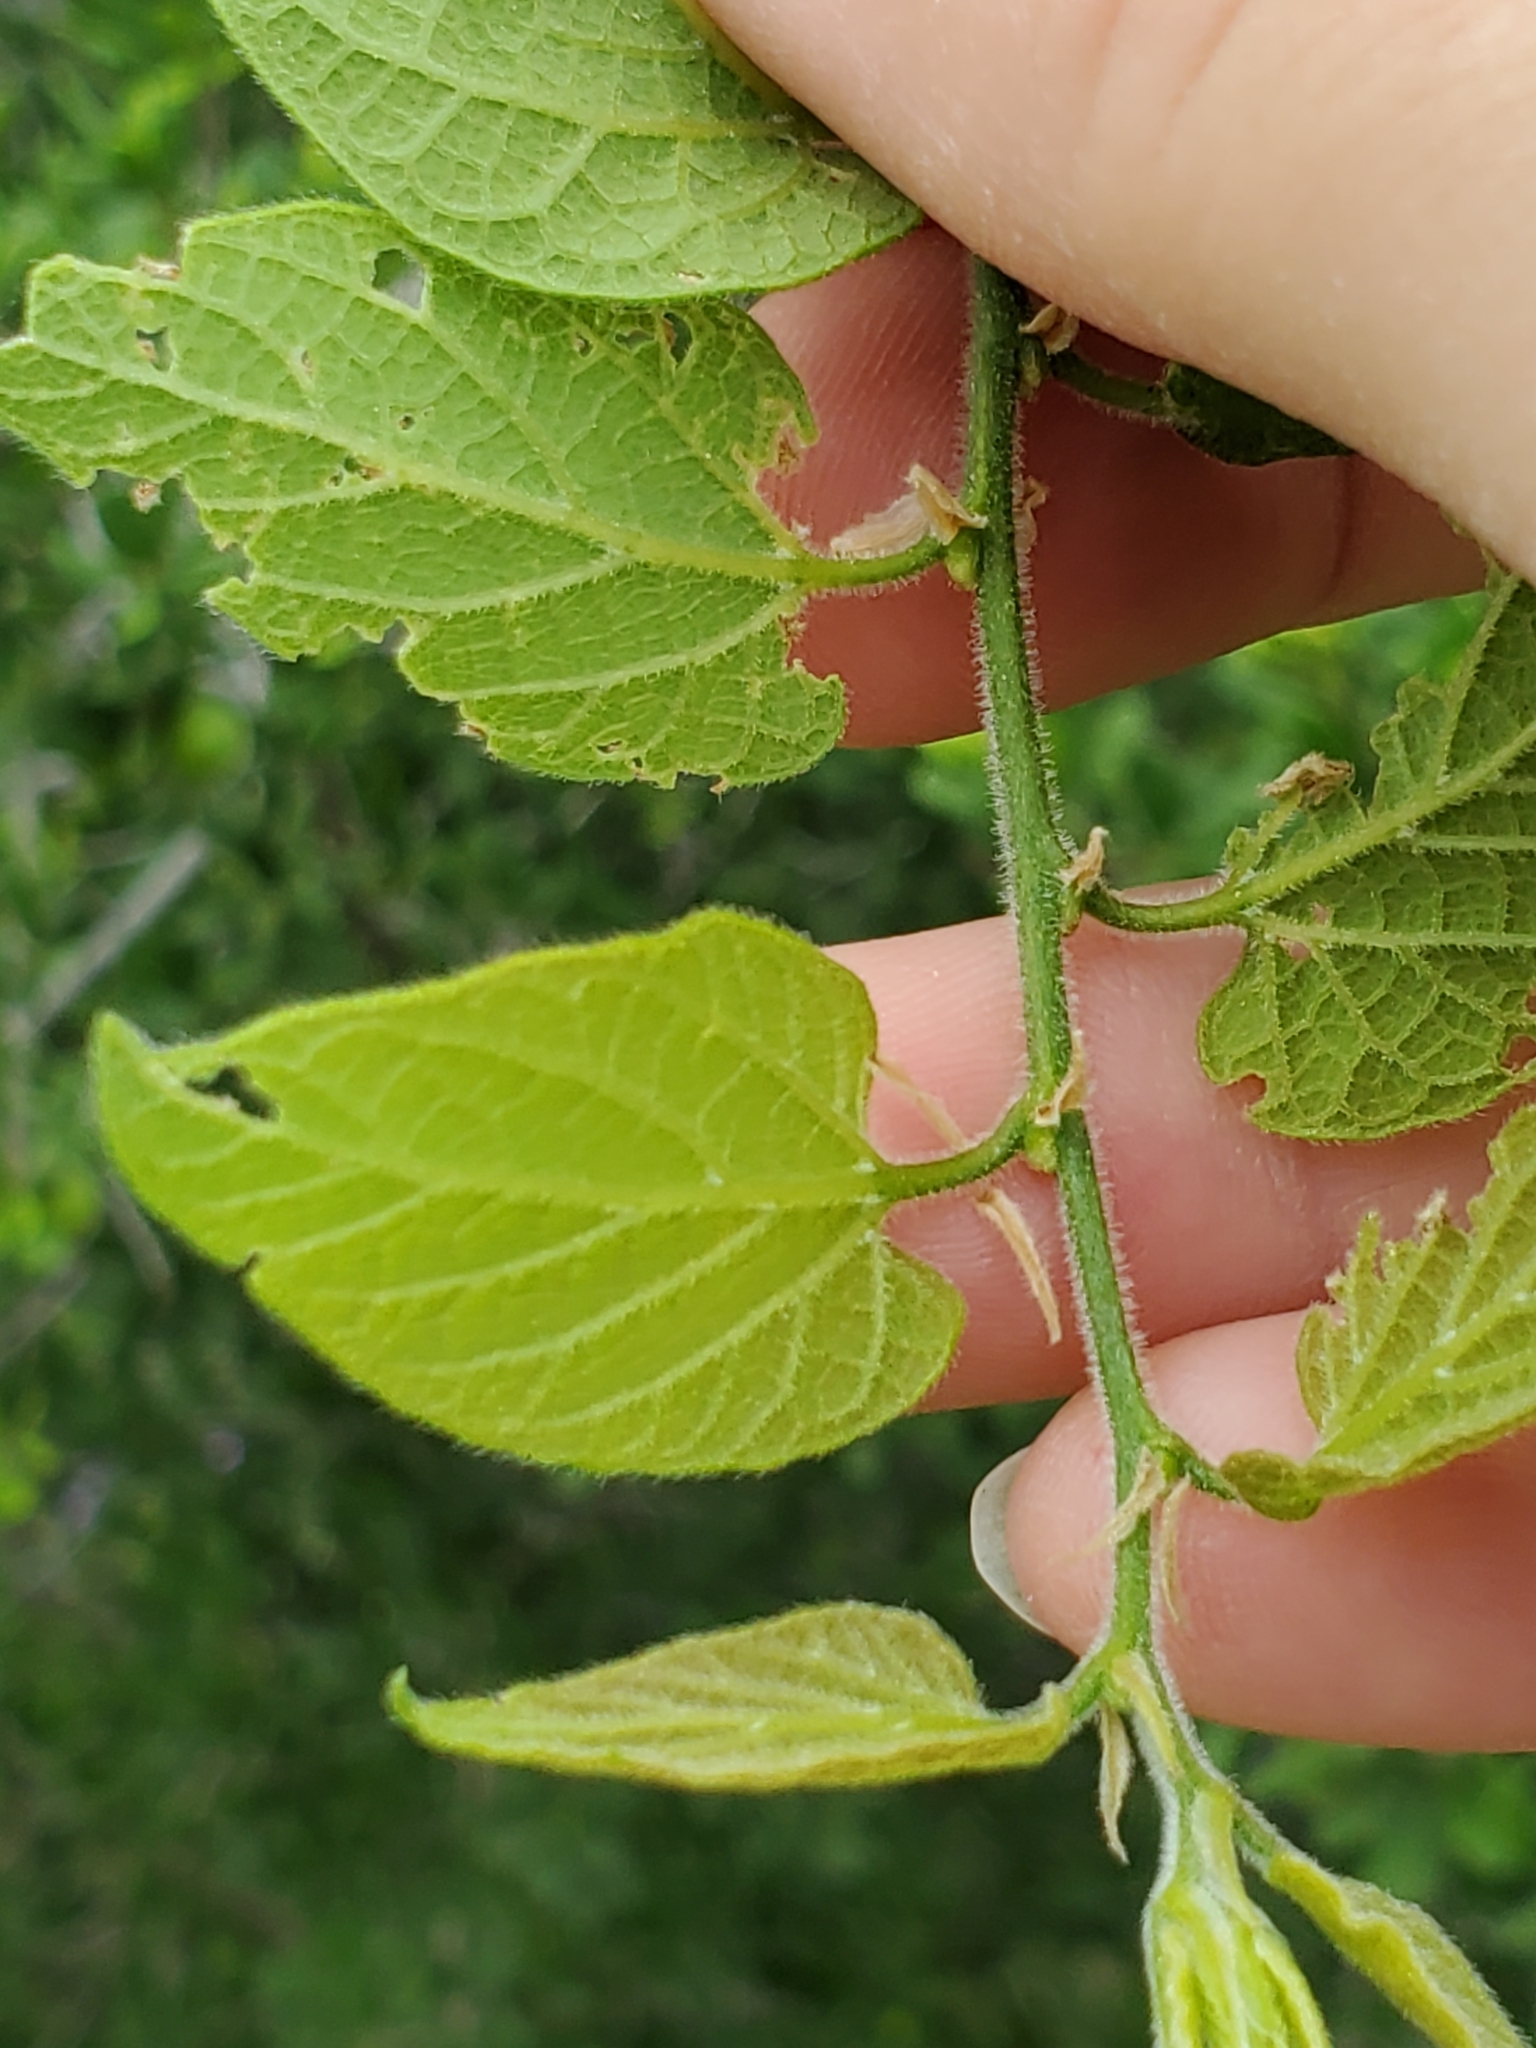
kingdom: Plantae
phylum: Tracheophyta
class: Magnoliopsida
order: Rosales
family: Cannabaceae
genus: Celtis
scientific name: Celtis reticulata
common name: Netleaf hackberry
